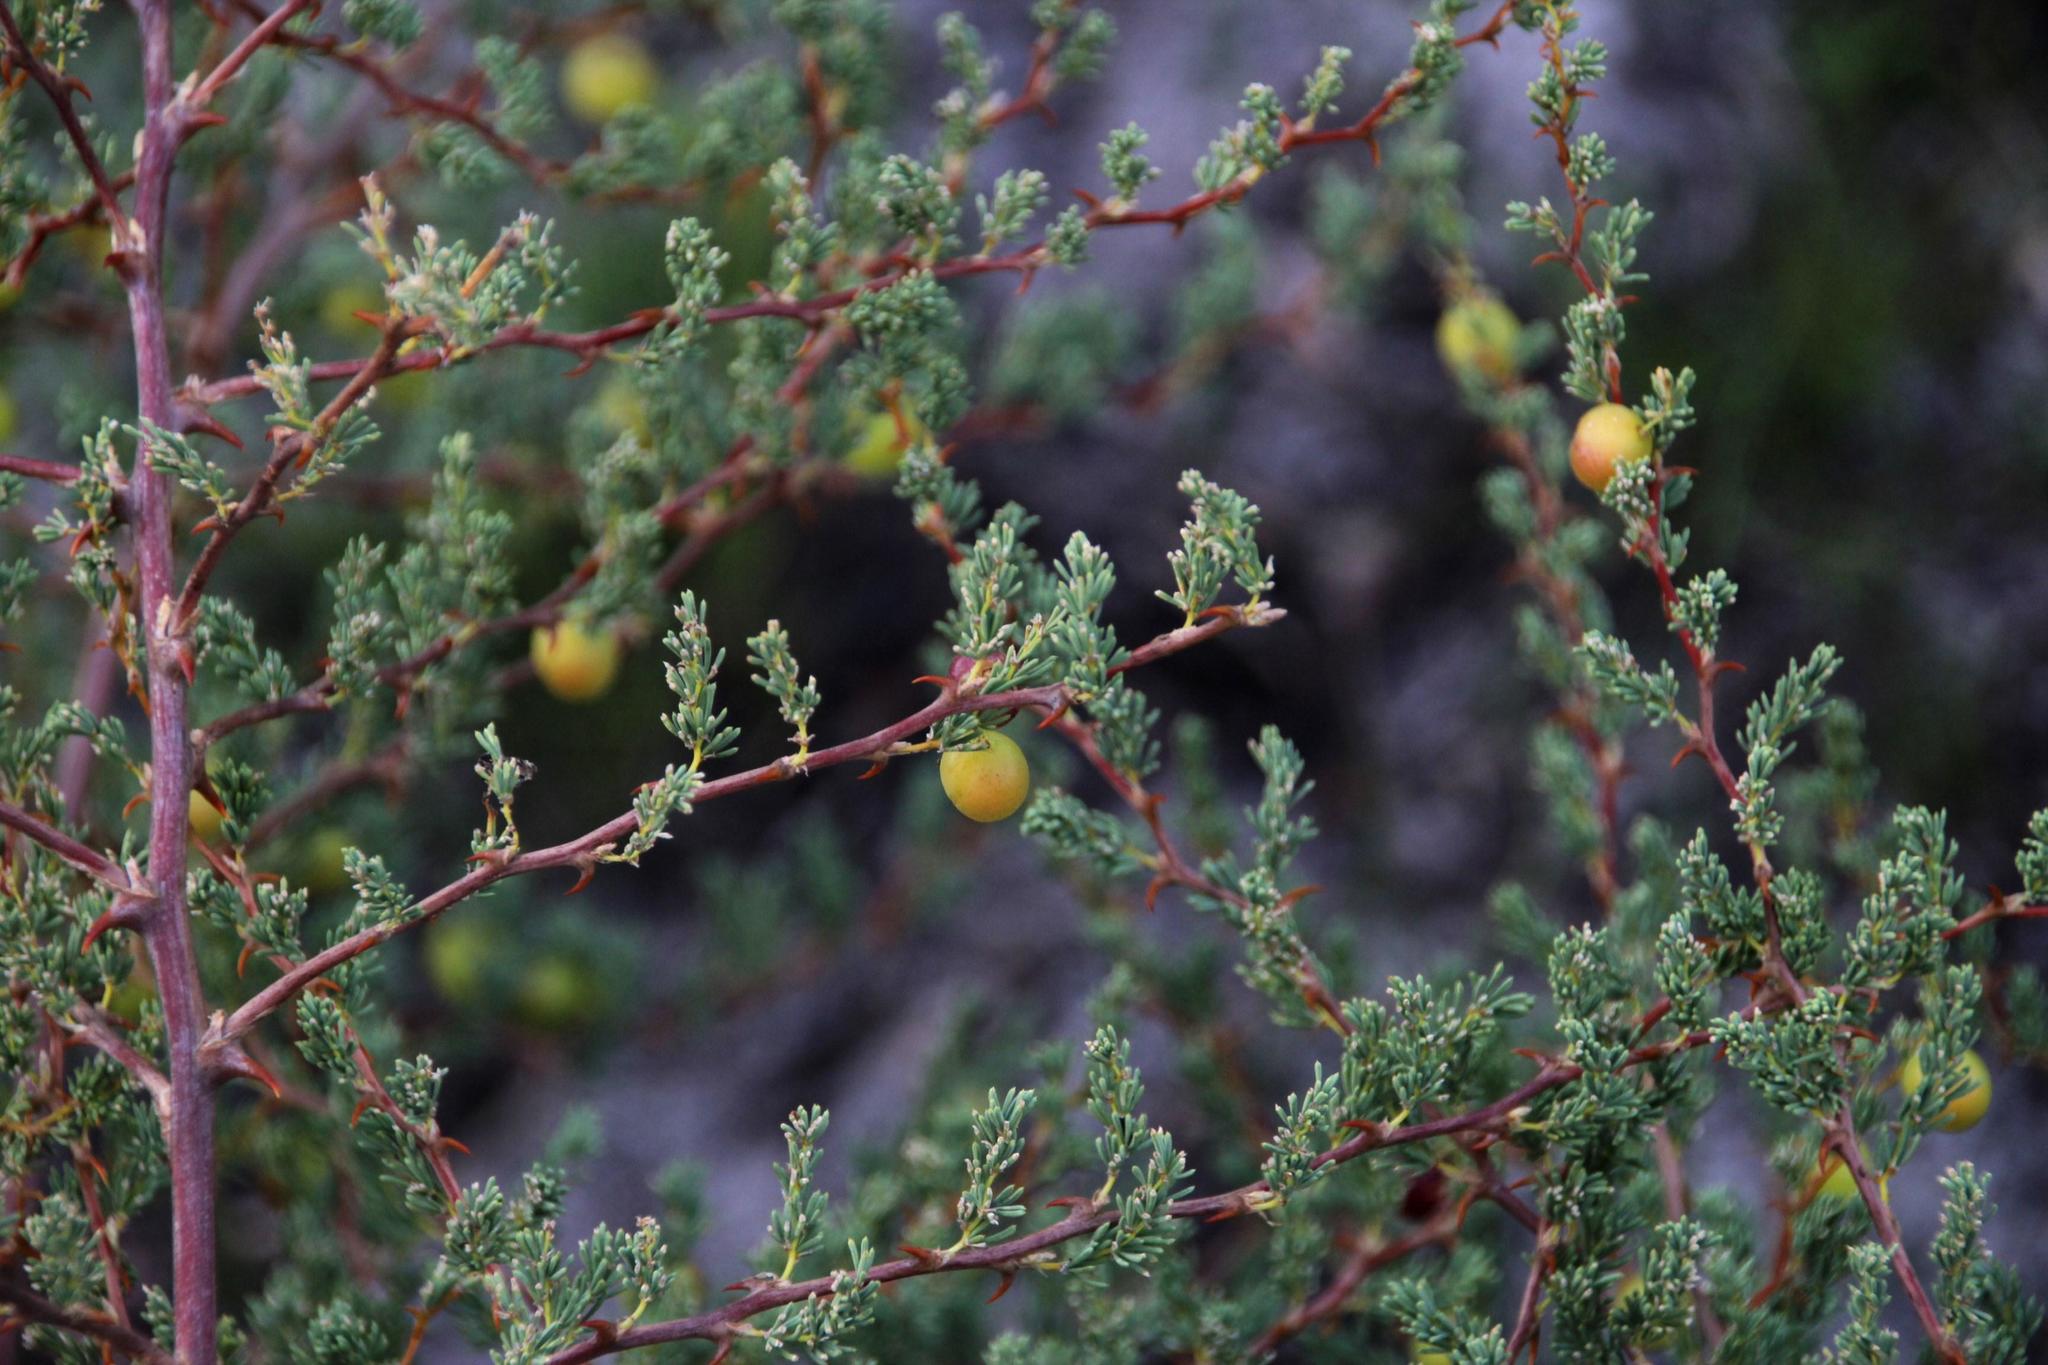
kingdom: Plantae
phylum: Tracheophyta
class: Liliopsida
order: Asparagales
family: Asparagaceae
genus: Asparagus
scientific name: Asparagus rubicundus
